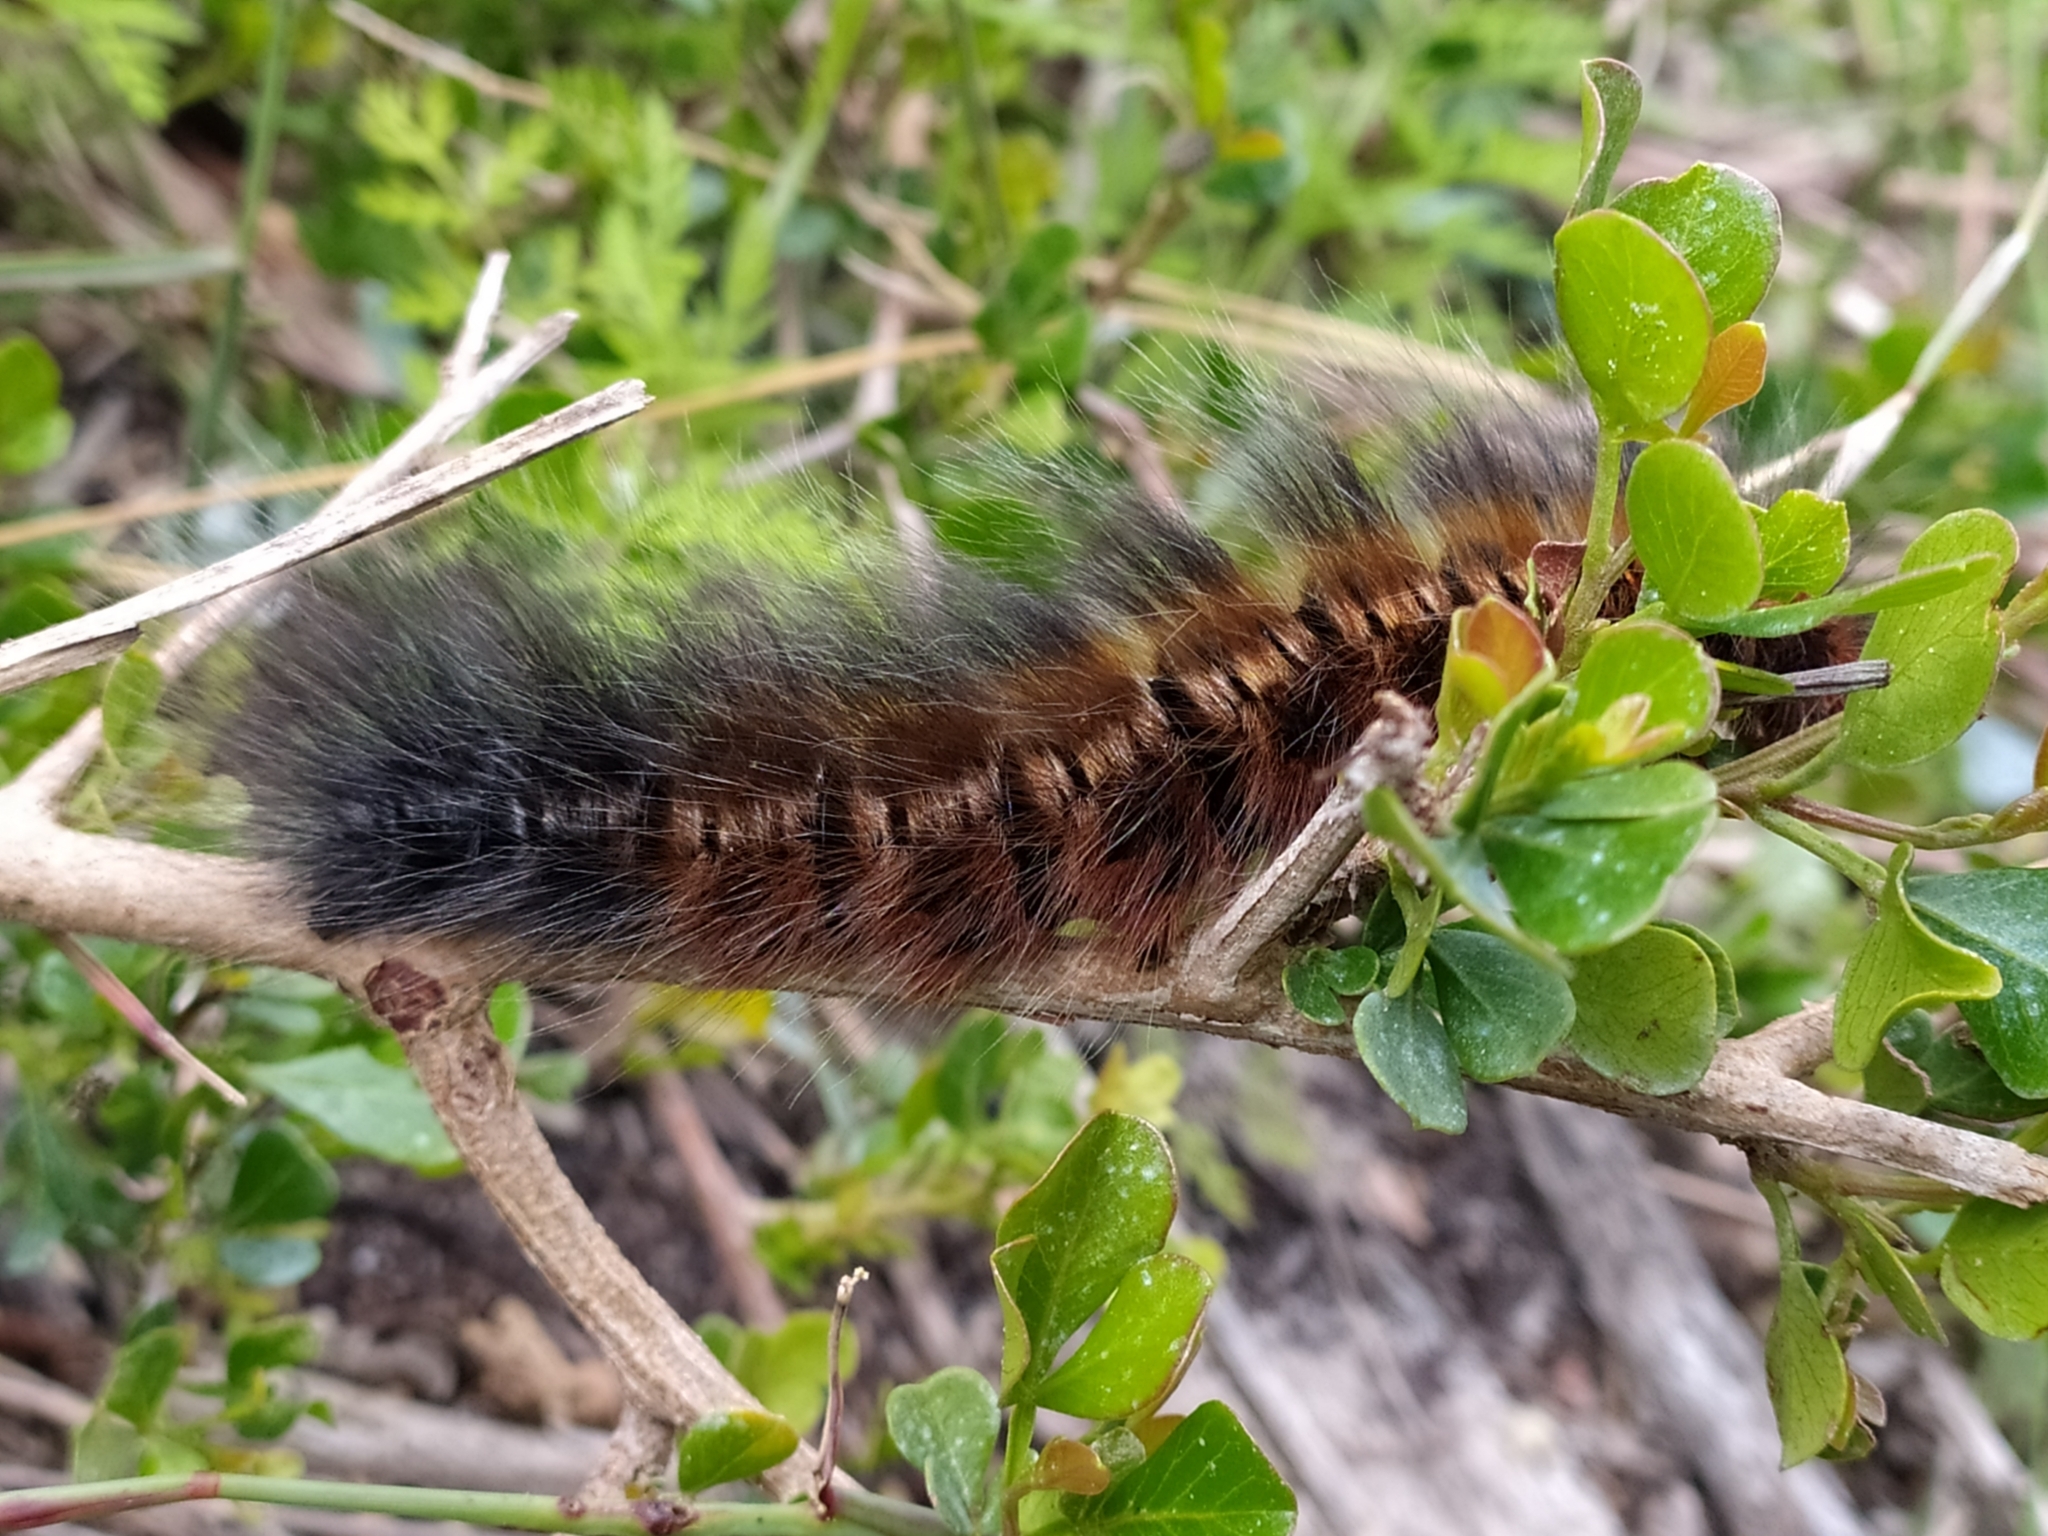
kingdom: Animalia
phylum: Arthropoda
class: Insecta
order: Lepidoptera
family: Lasiocampidae
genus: Mesocelis
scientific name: Mesocelis monticola
